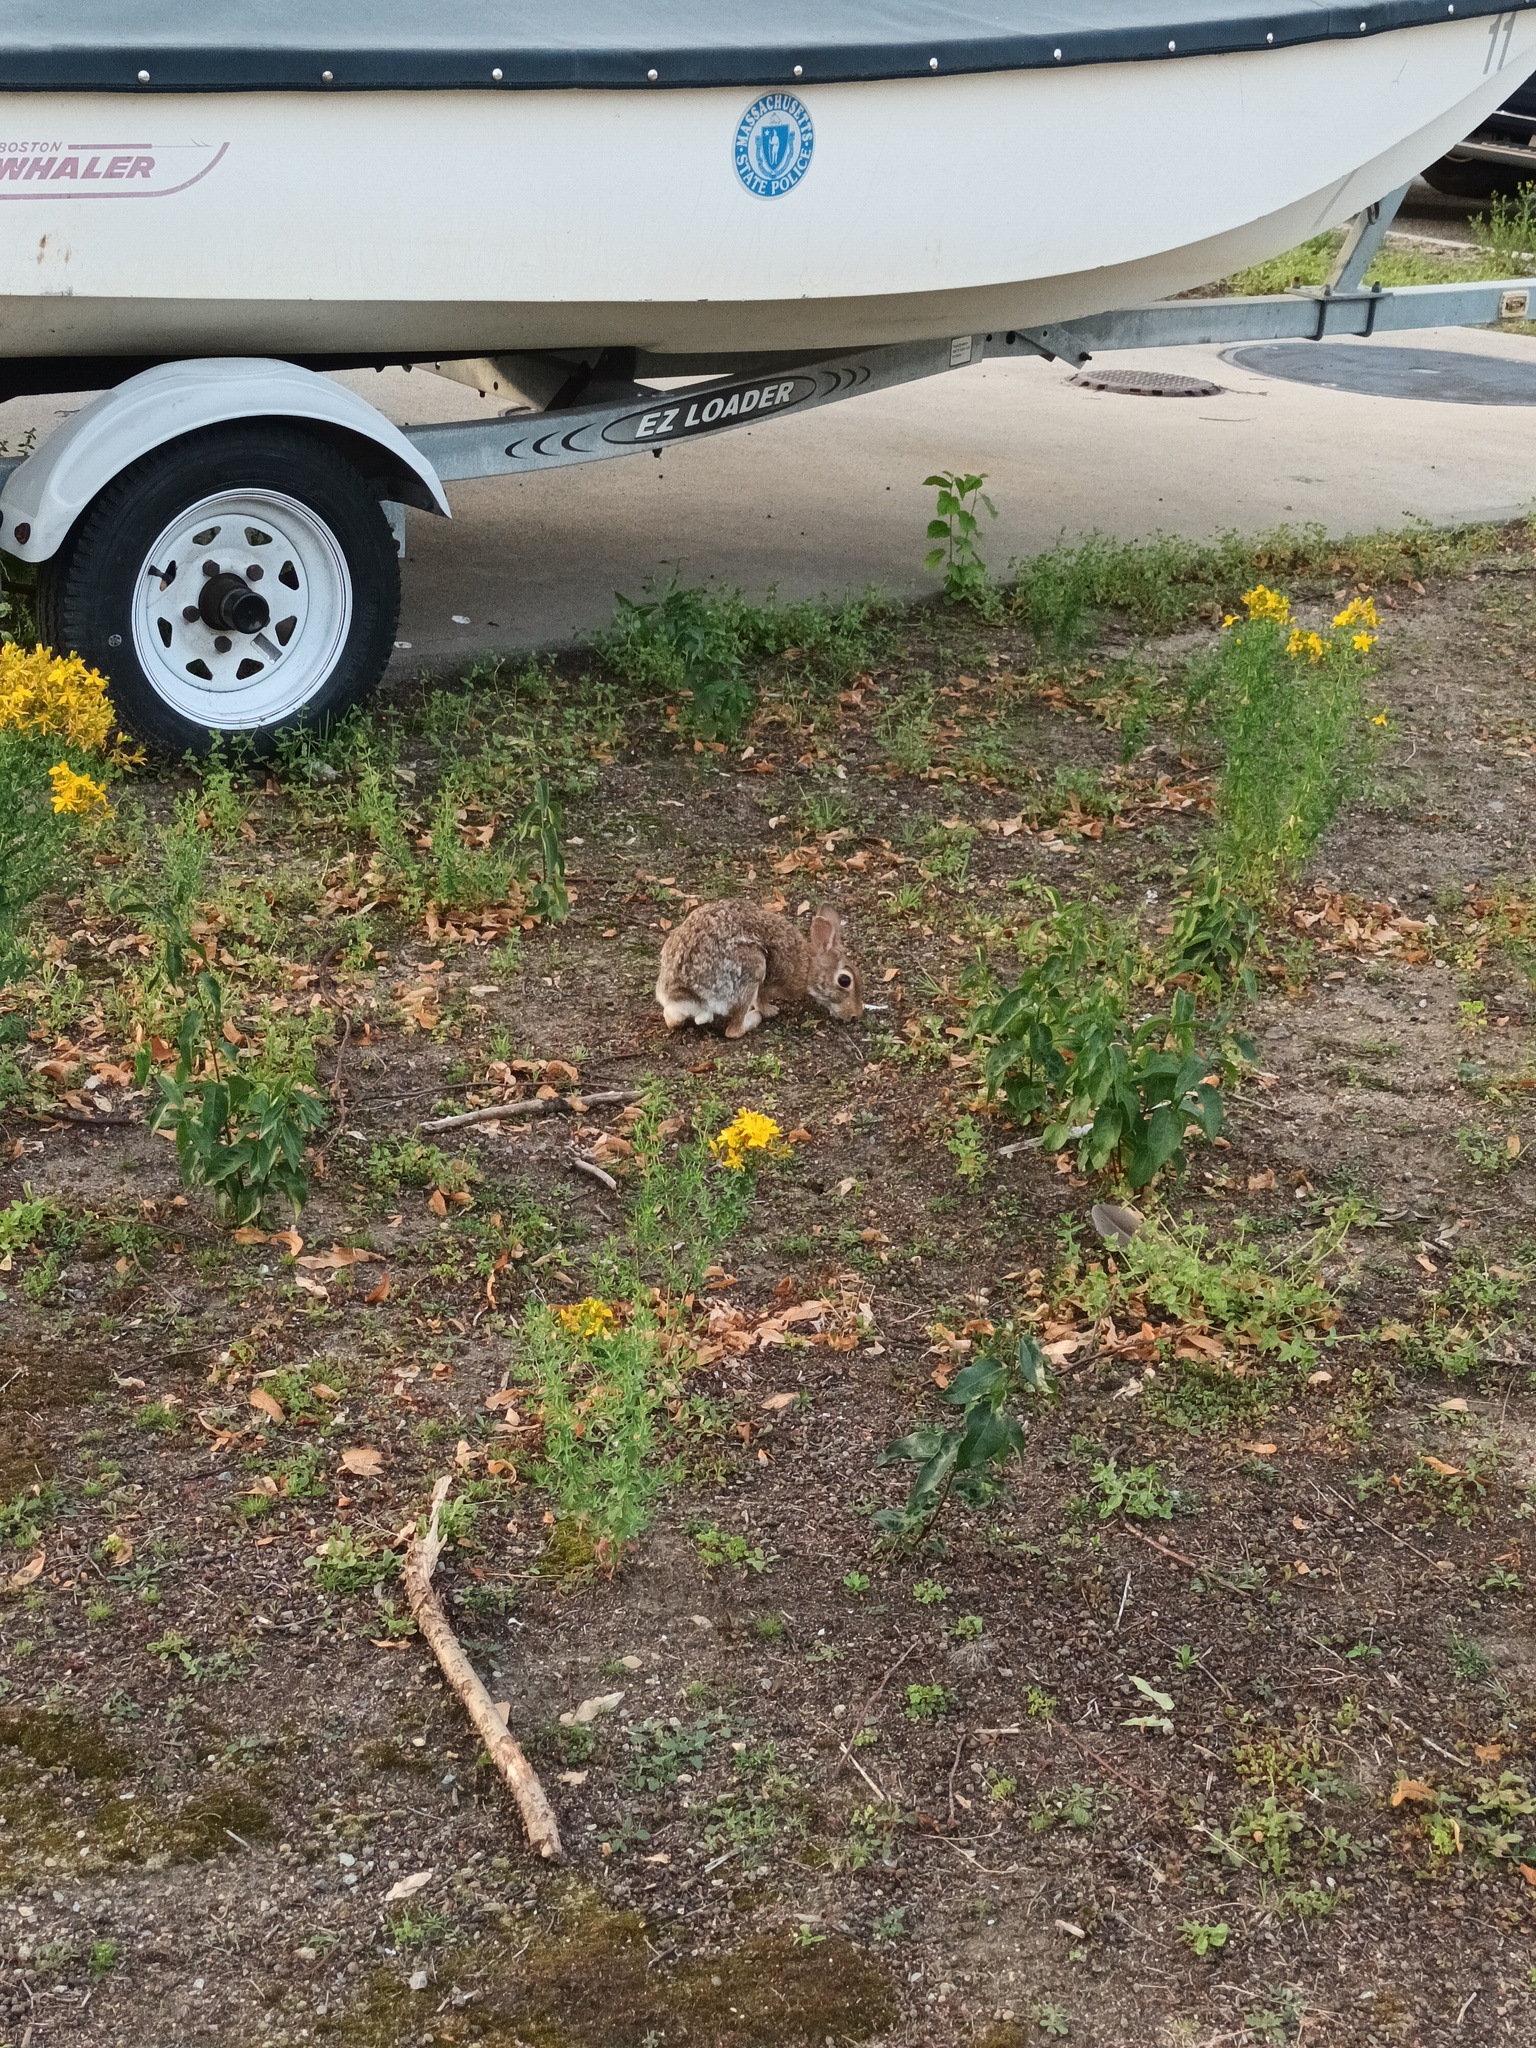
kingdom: Animalia
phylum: Chordata
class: Mammalia
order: Lagomorpha
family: Leporidae
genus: Sylvilagus
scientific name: Sylvilagus floridanus
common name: Eastern cottontail
